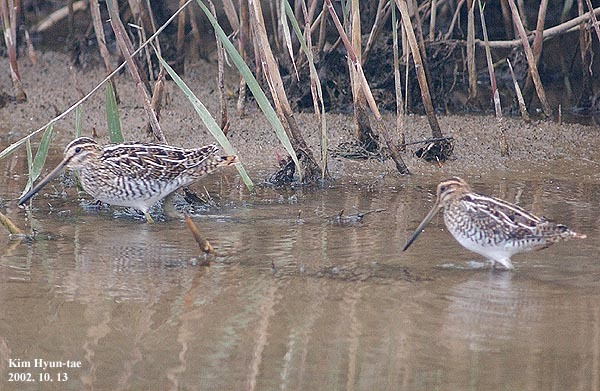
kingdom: Animalia
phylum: Chordata
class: Aves
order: Charadriiformes
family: Scolopacidae
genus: Gallinago
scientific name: Gallinago gallinago
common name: Common snipe
